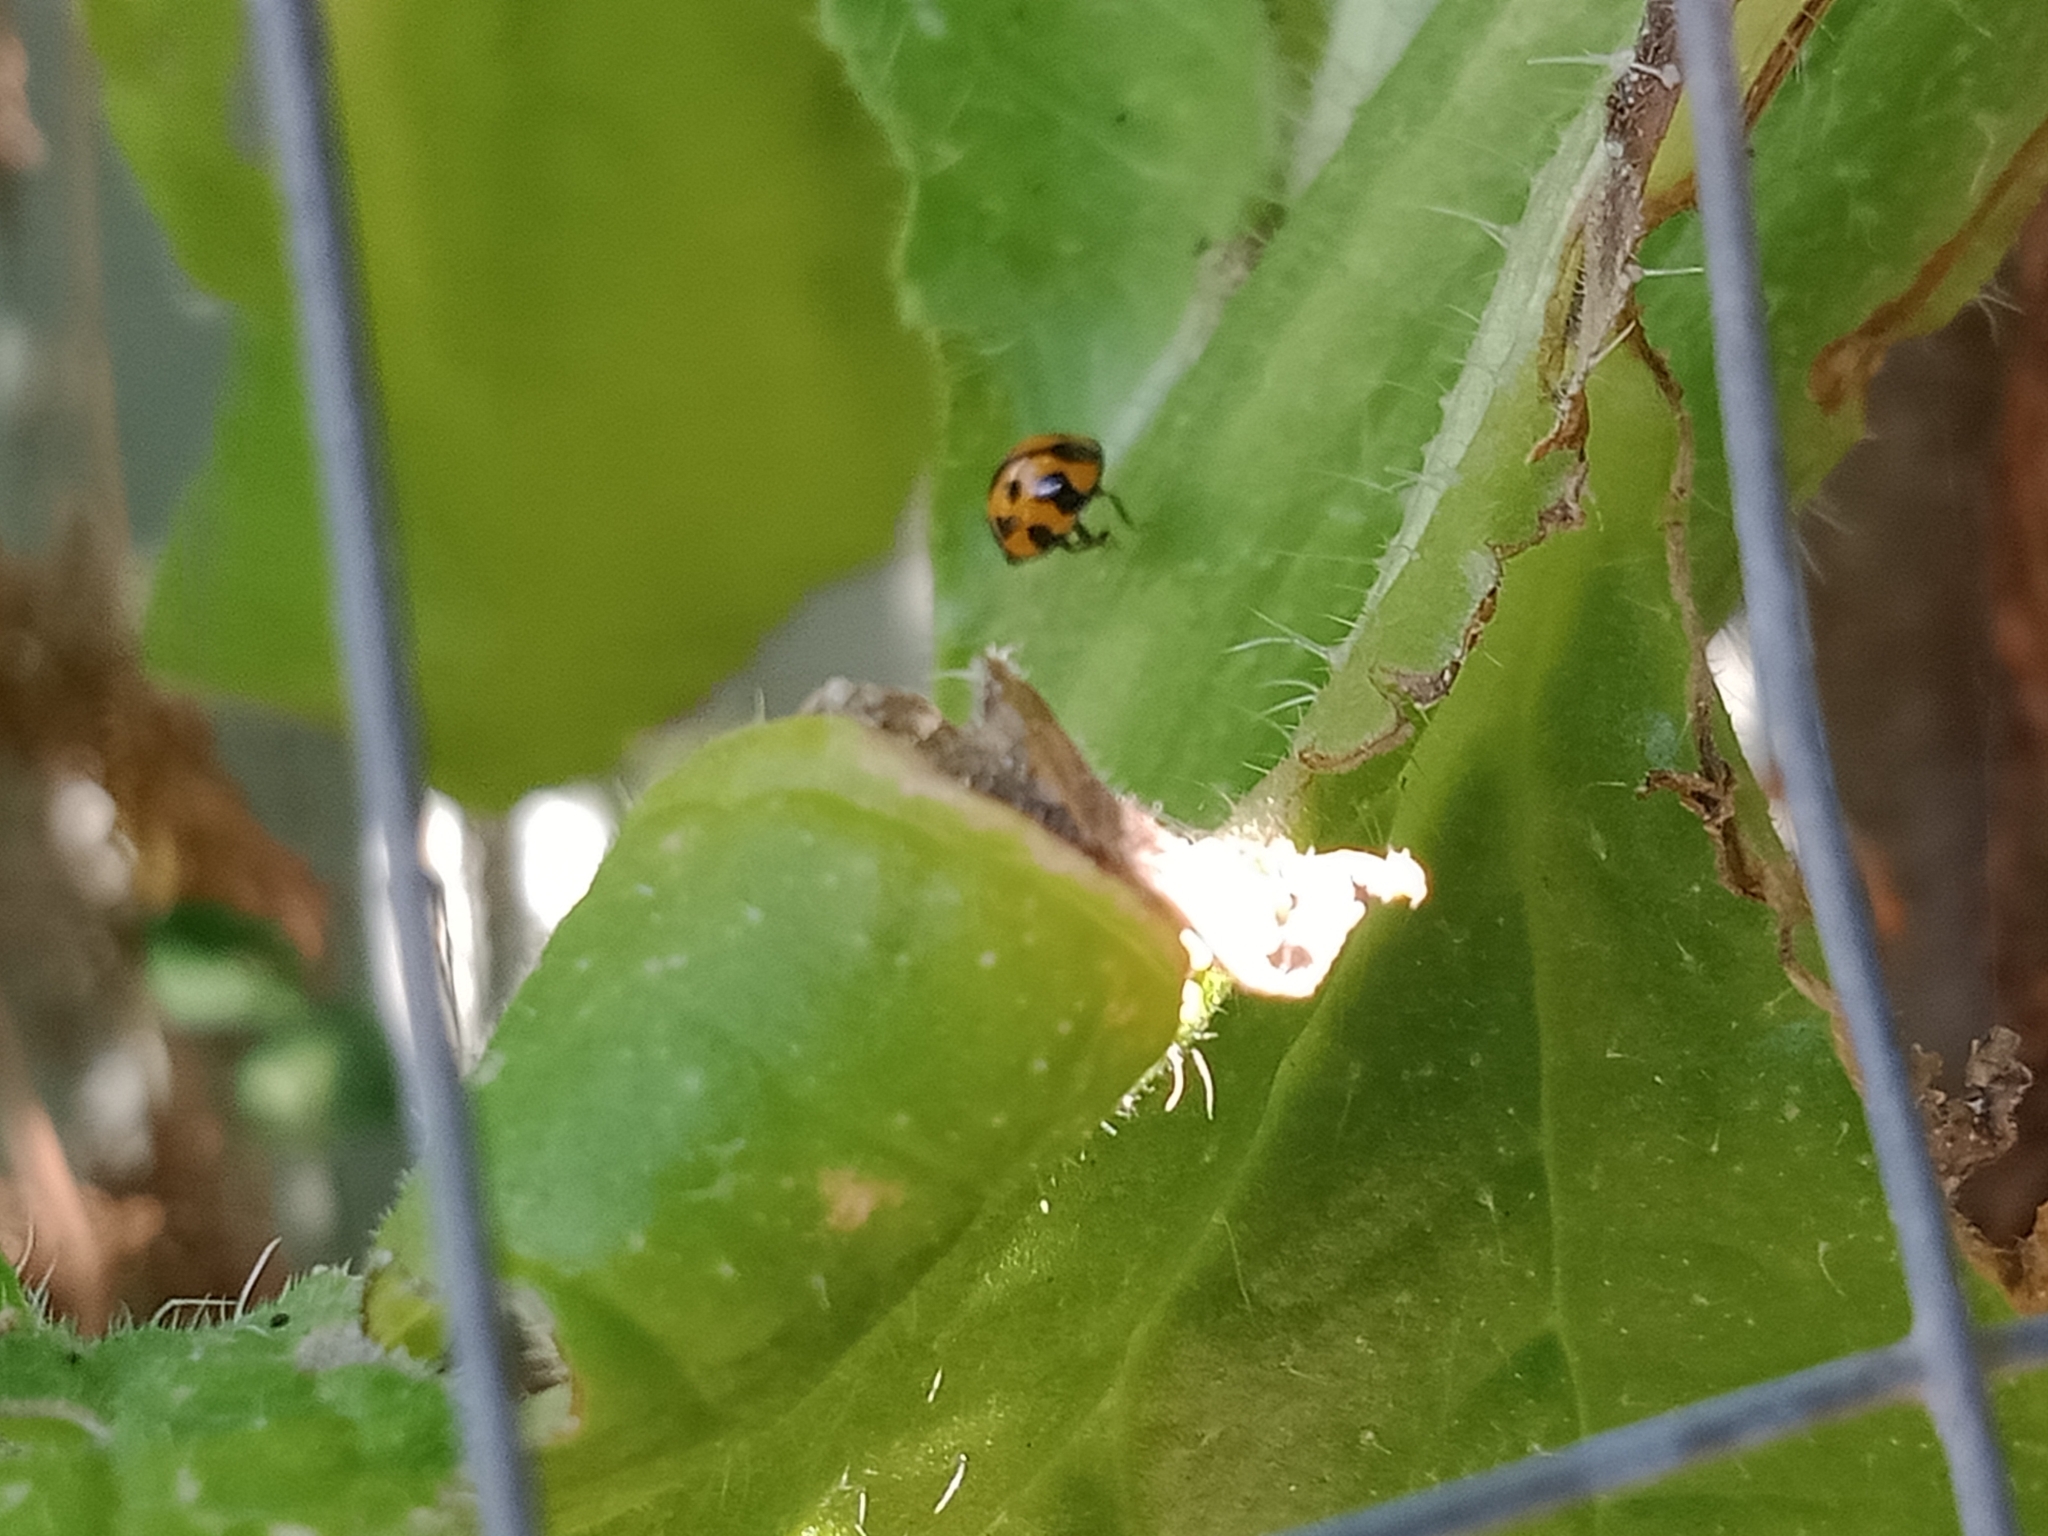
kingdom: Animalia
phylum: Arthropoda
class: Insecta
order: Coleoptera
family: Coccinellidae
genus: Coelophora
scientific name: Coelophora inaequalis
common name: Common australian lady beetle
